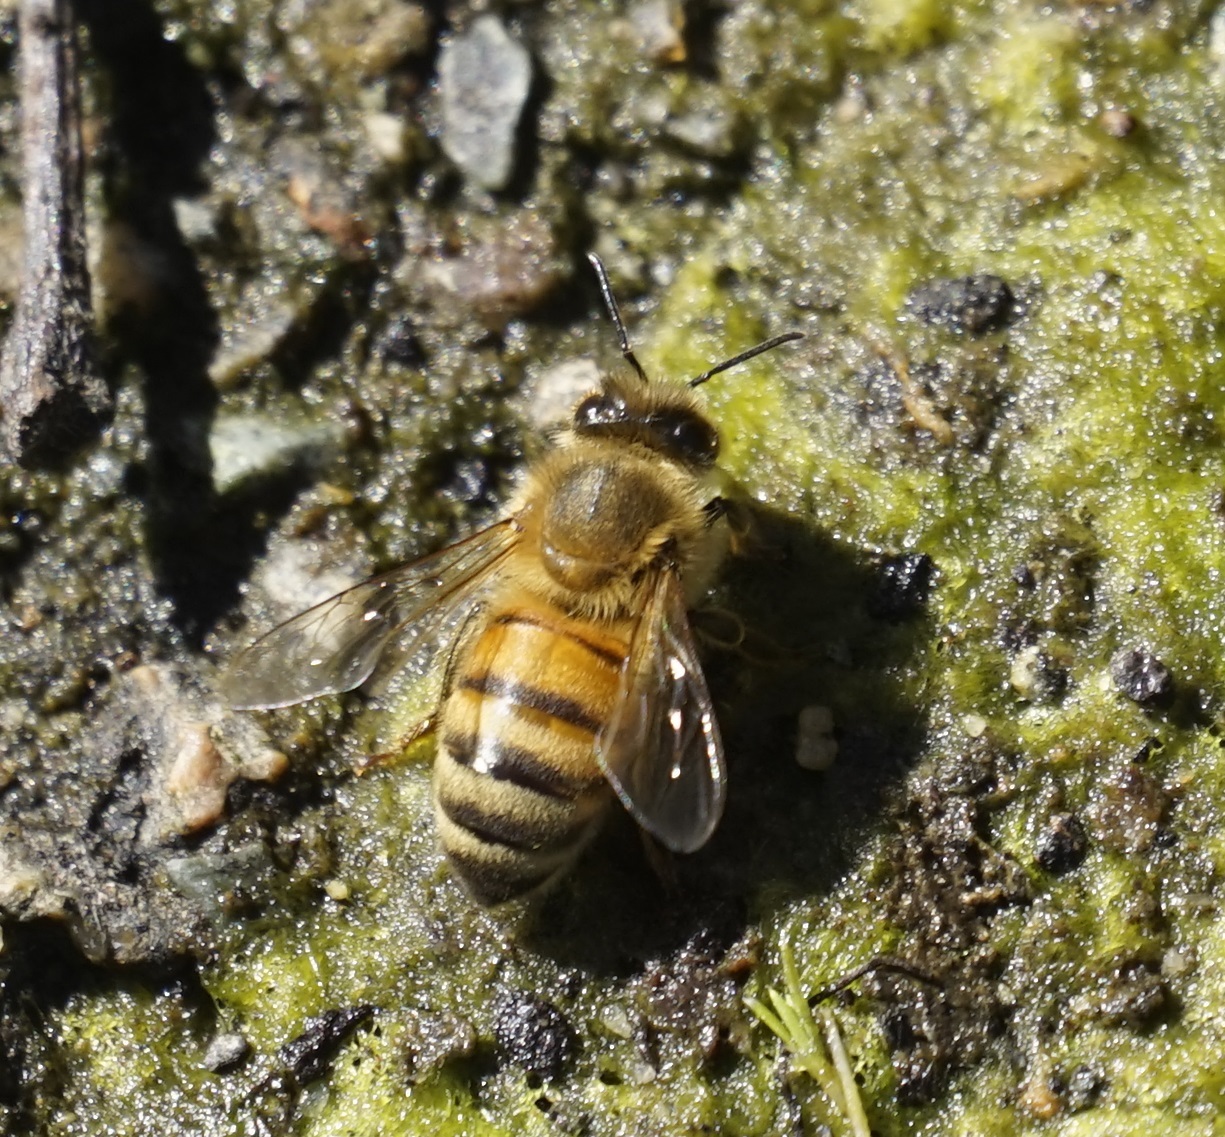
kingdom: Animalia
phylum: Arthropoda
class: Insecta
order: Hymenoptera
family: Apidae
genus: Apis
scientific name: Apis mellifera
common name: Honey bee
